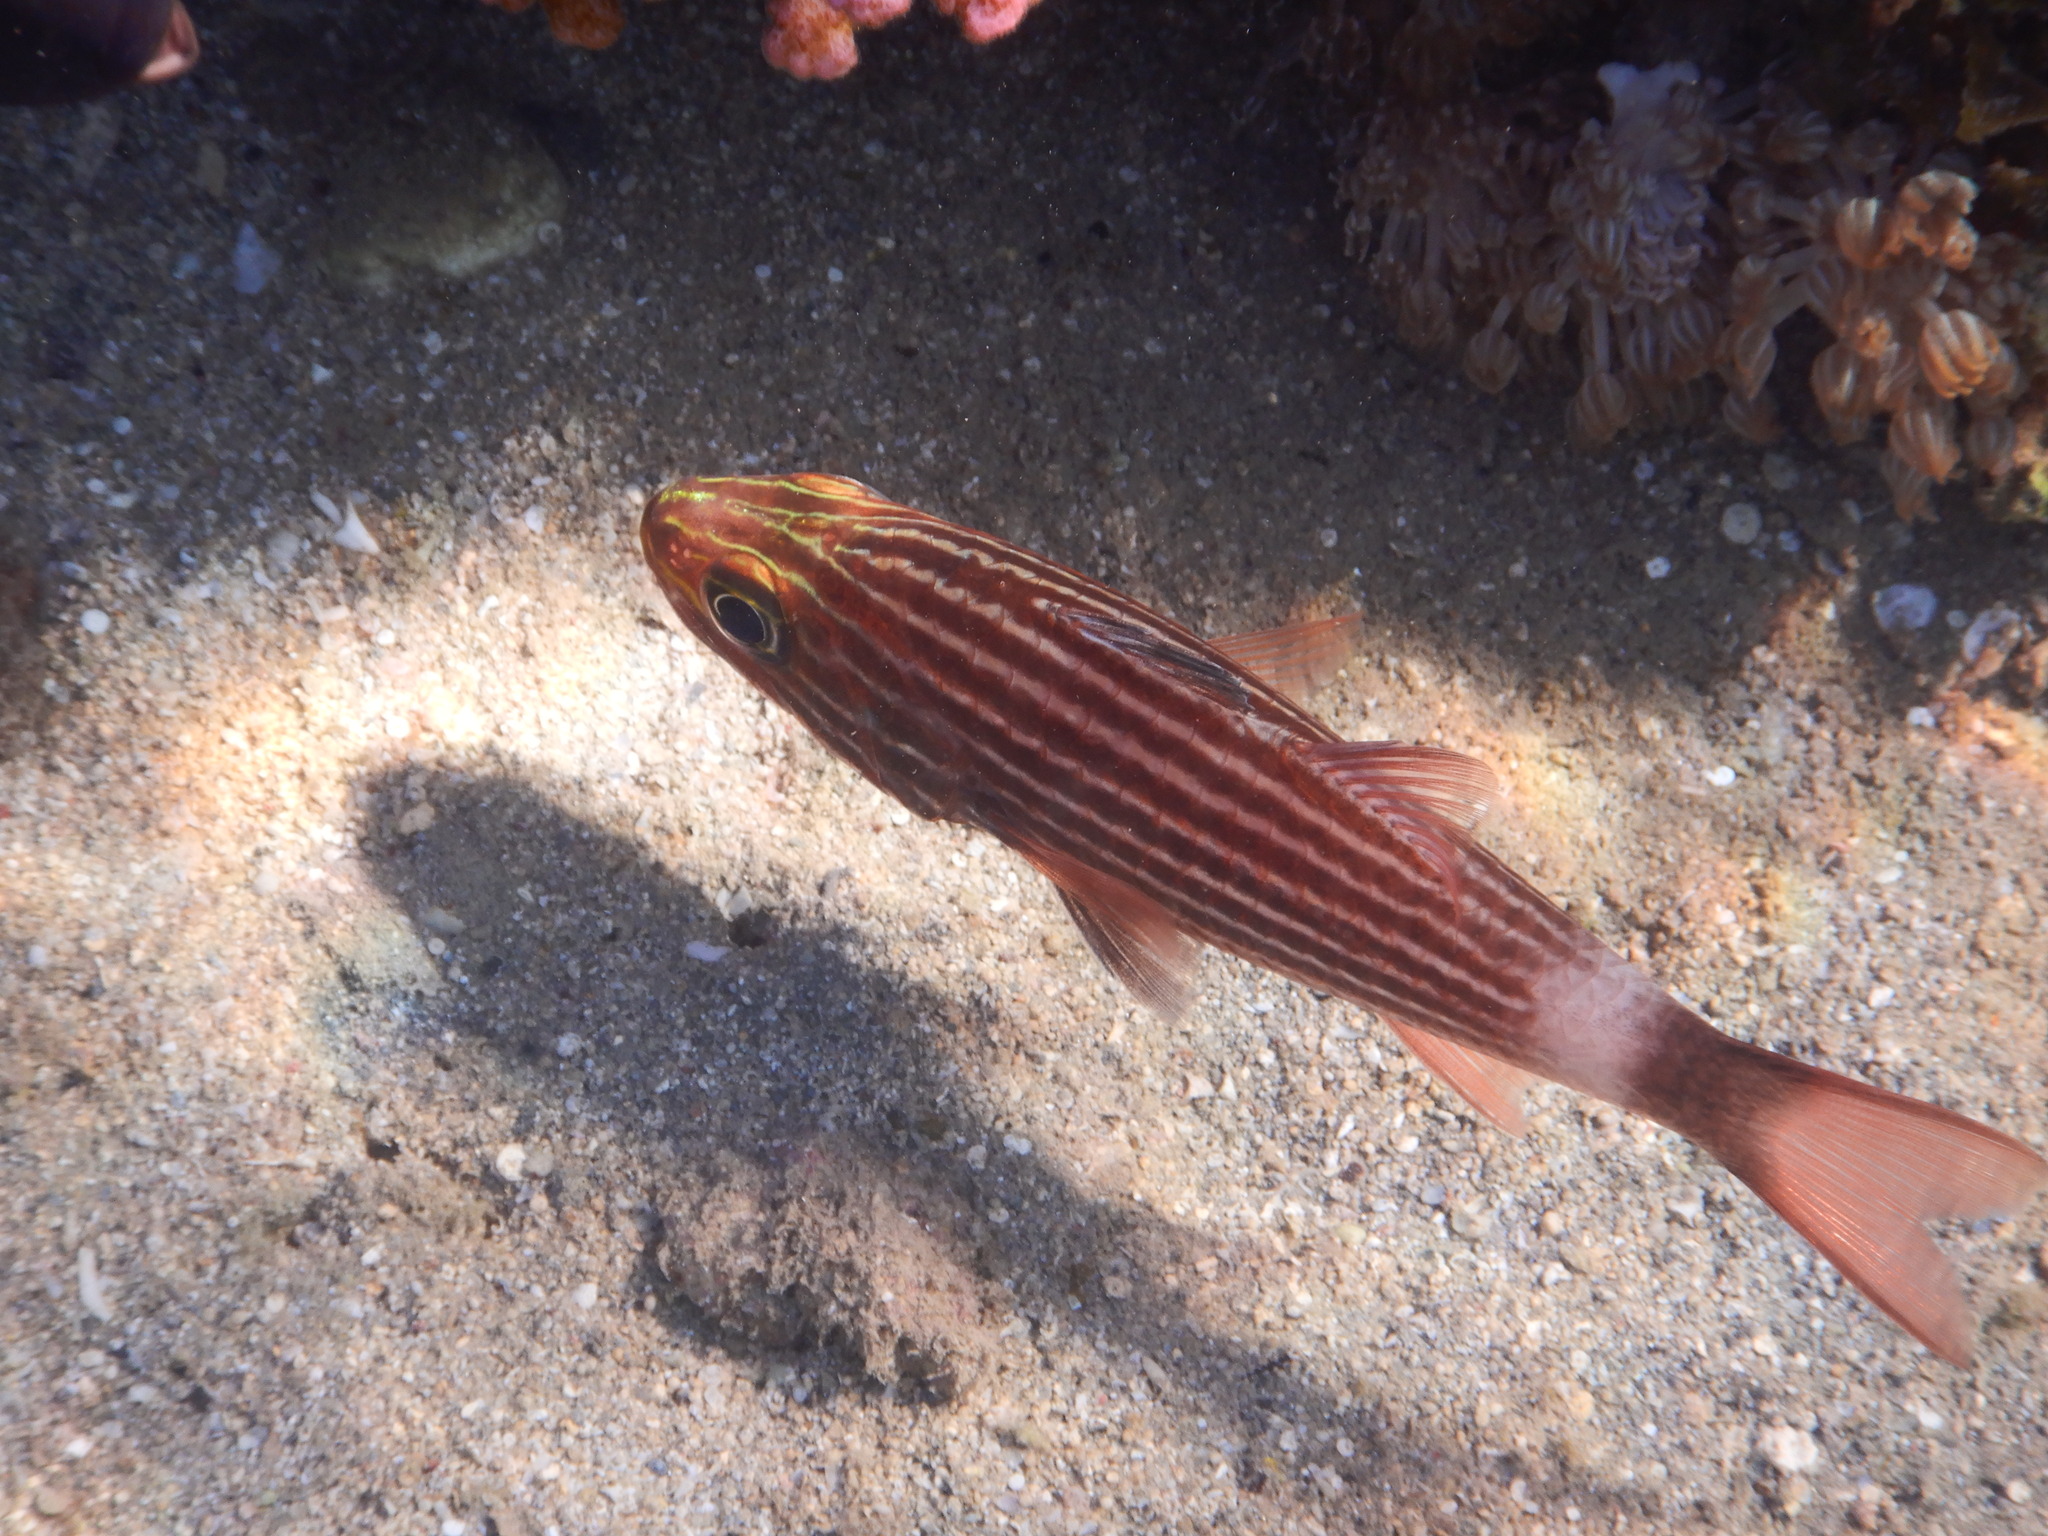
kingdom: Animalia
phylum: Chordata
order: Perciformes
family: Apogonidae
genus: Cheilodipterus
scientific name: Cheilodipterus macrodon
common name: Eight-lined cardinalfish
